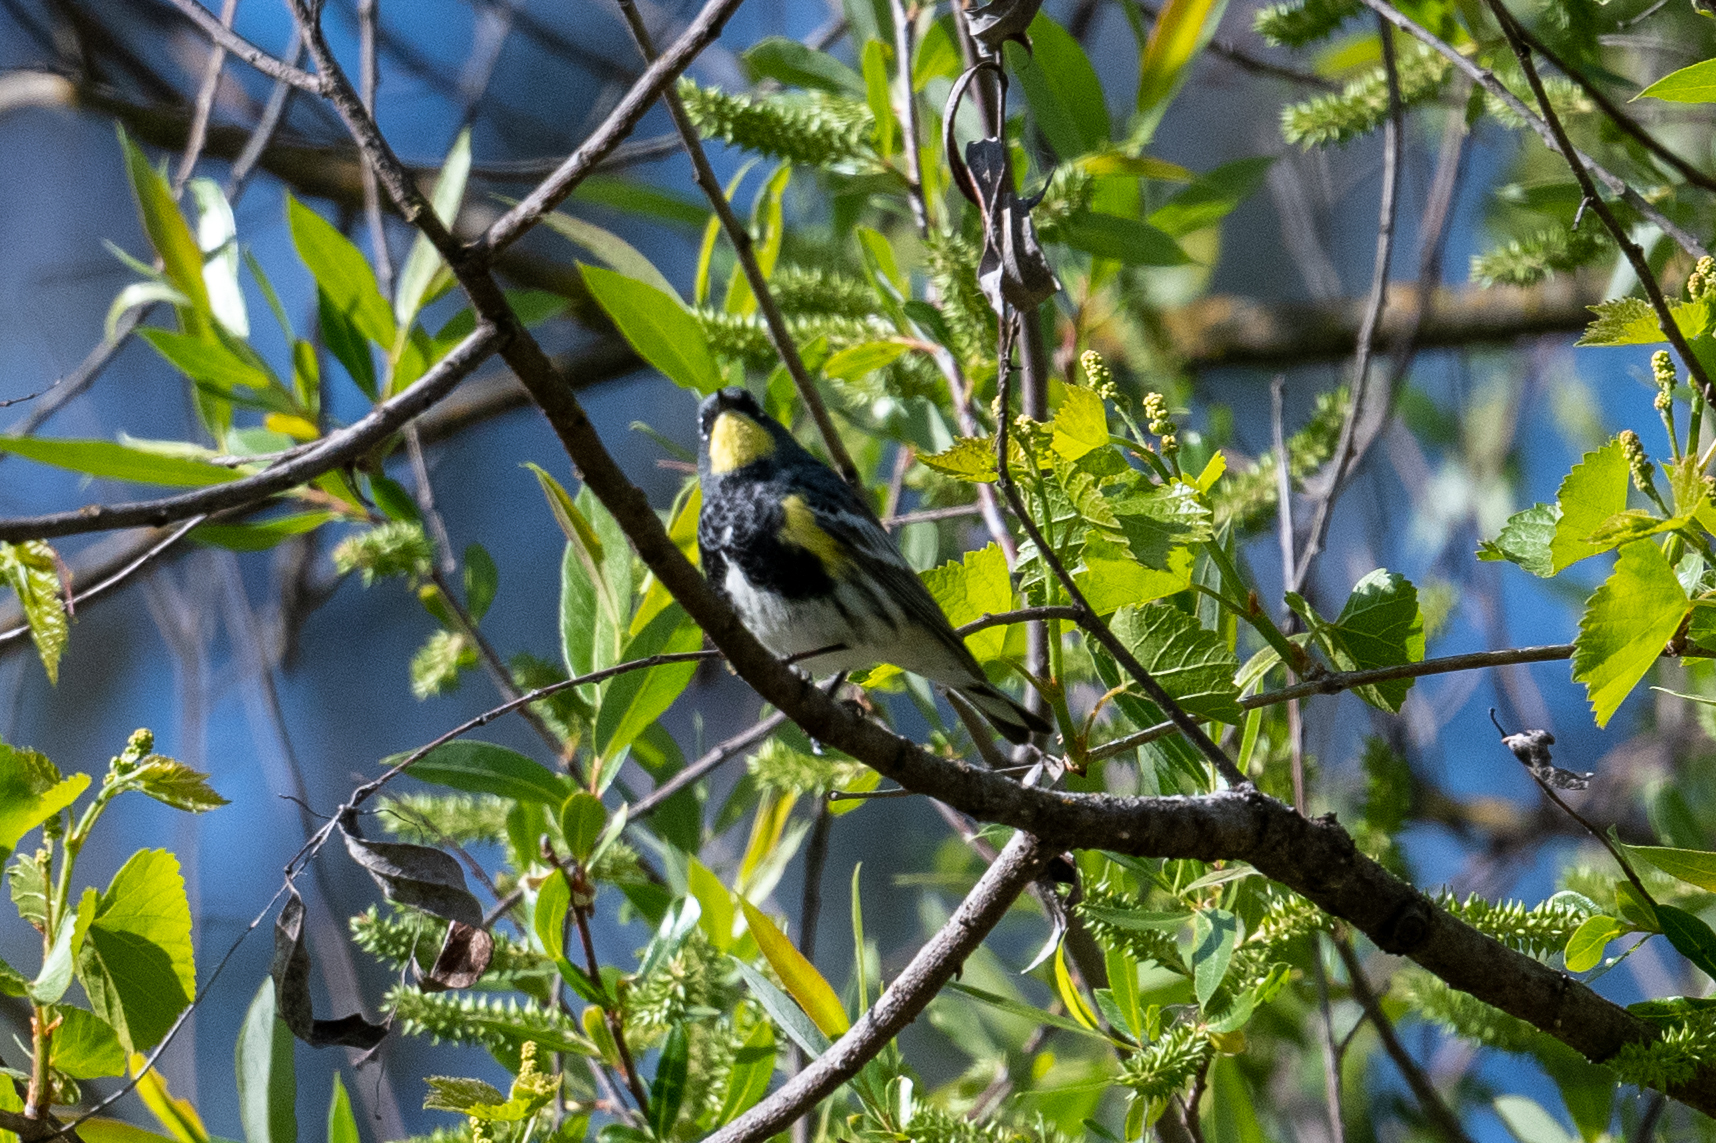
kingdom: Animalia
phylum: Chordata
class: Aves
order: Passeriformes
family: Parulidae
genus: Setophaga
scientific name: Setophaga coronata
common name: Myrtle warbler
